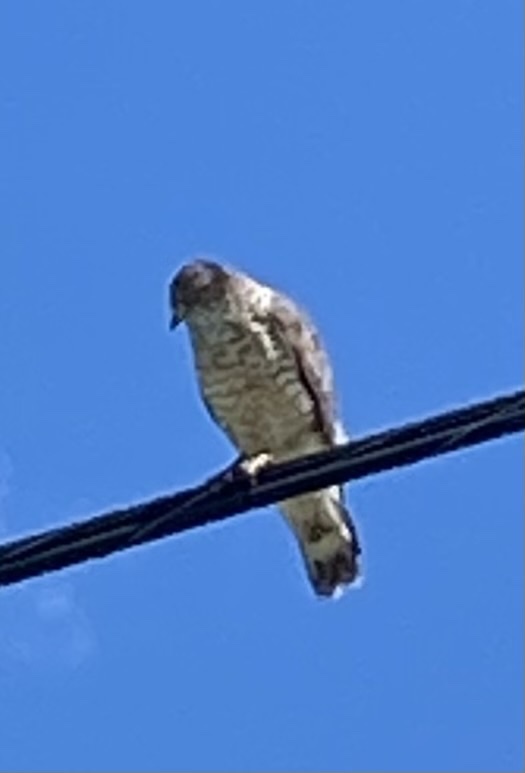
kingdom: Animalia
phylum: Chordata
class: Aves
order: Accipitriformes
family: Accipitridae
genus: Buteo
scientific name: Buteo platypterus
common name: Broad-winged hawk
